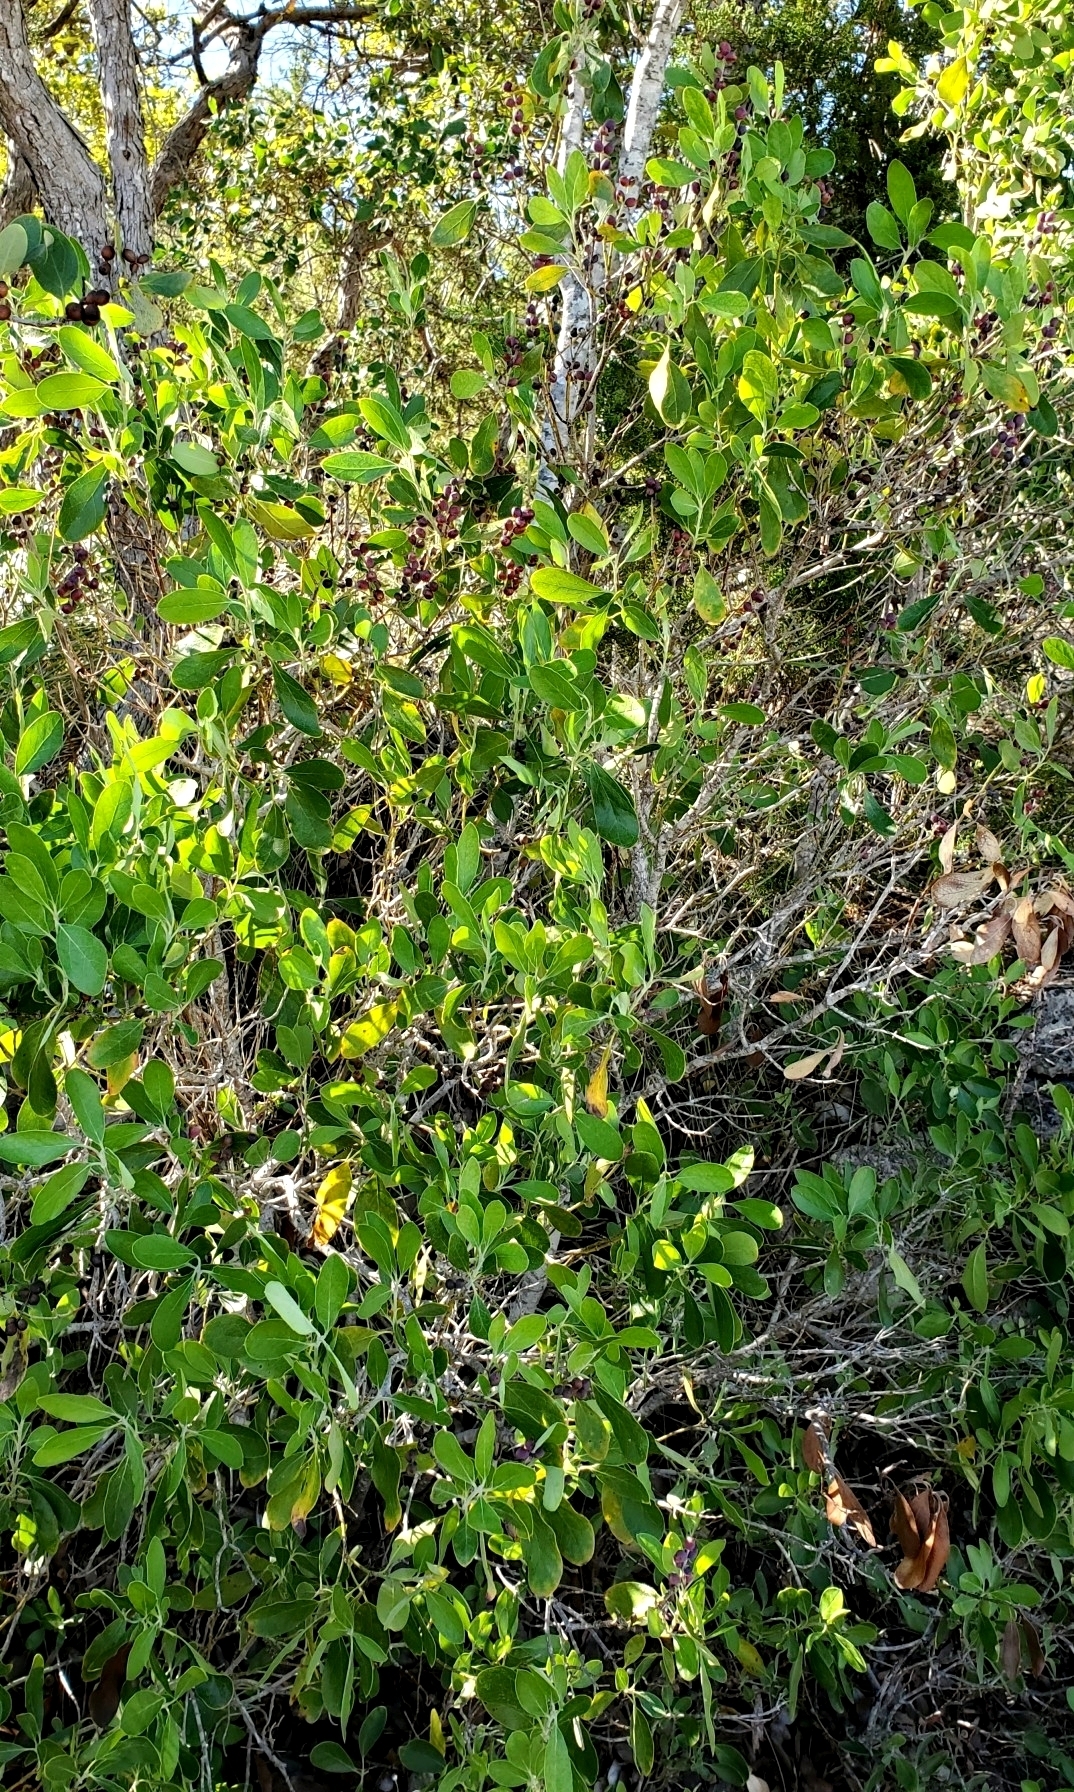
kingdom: Plantae
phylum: Tracheophyta
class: Magnoliopsida
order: Garryales
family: Garryaceae
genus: Garrya
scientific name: Garrya lindheimeri
